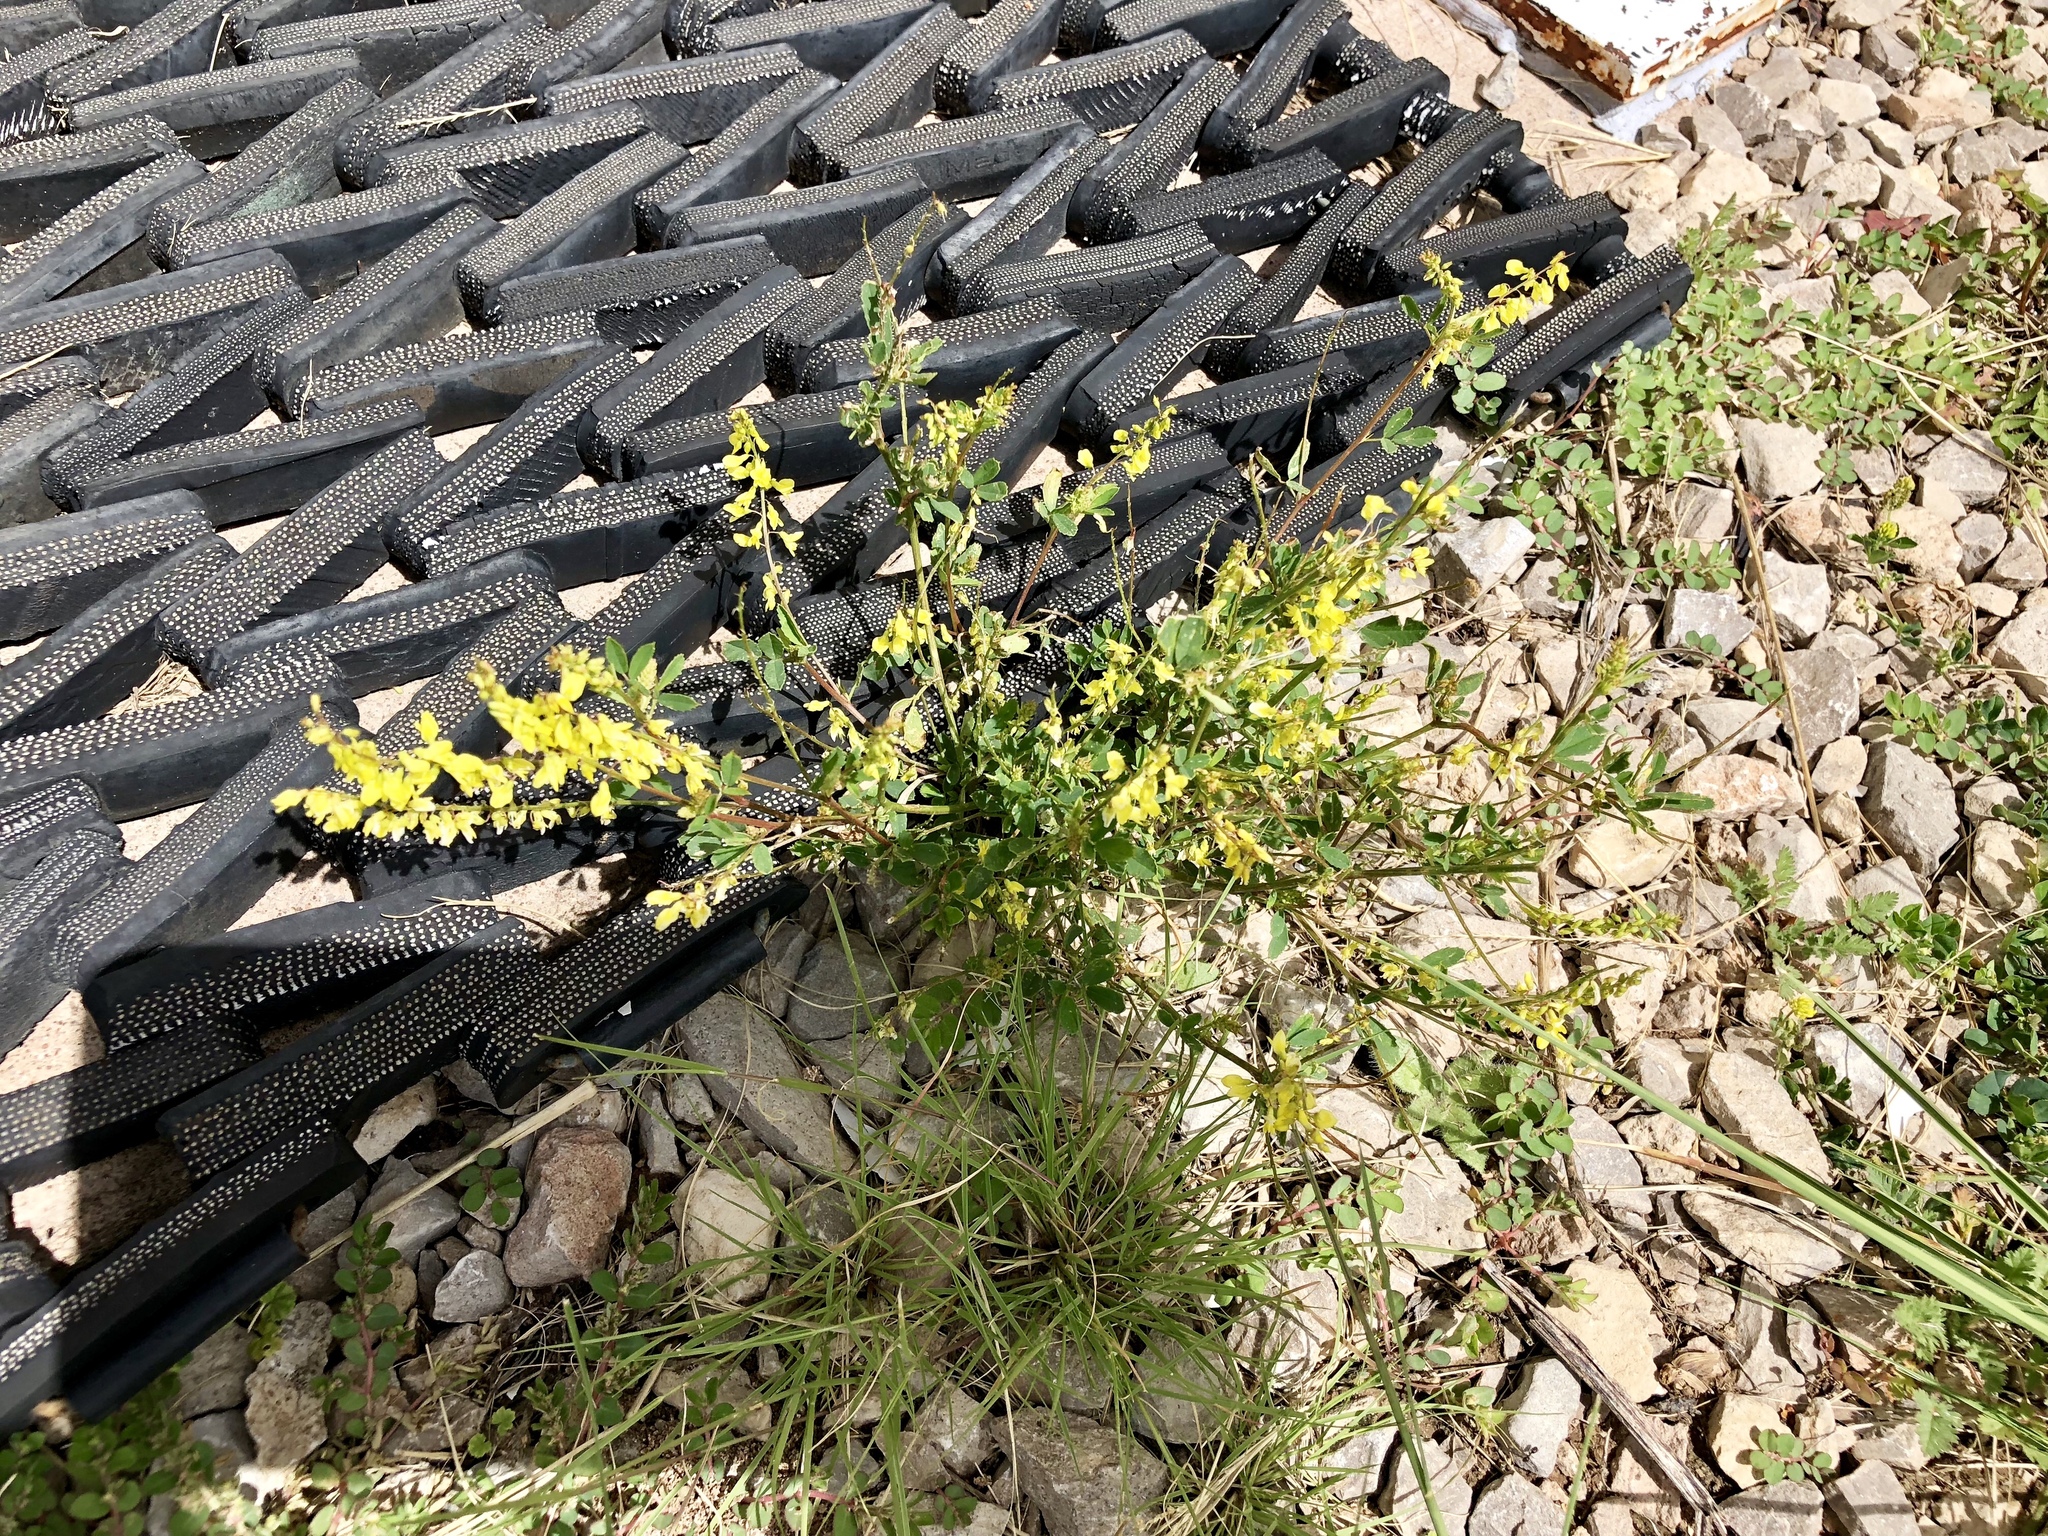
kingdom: Plantae
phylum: Tracheophyta
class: Magnoliopsida
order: Fabales
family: Fabaceae
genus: Melilotus
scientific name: Melilotus officinalis
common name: Sweetclover
